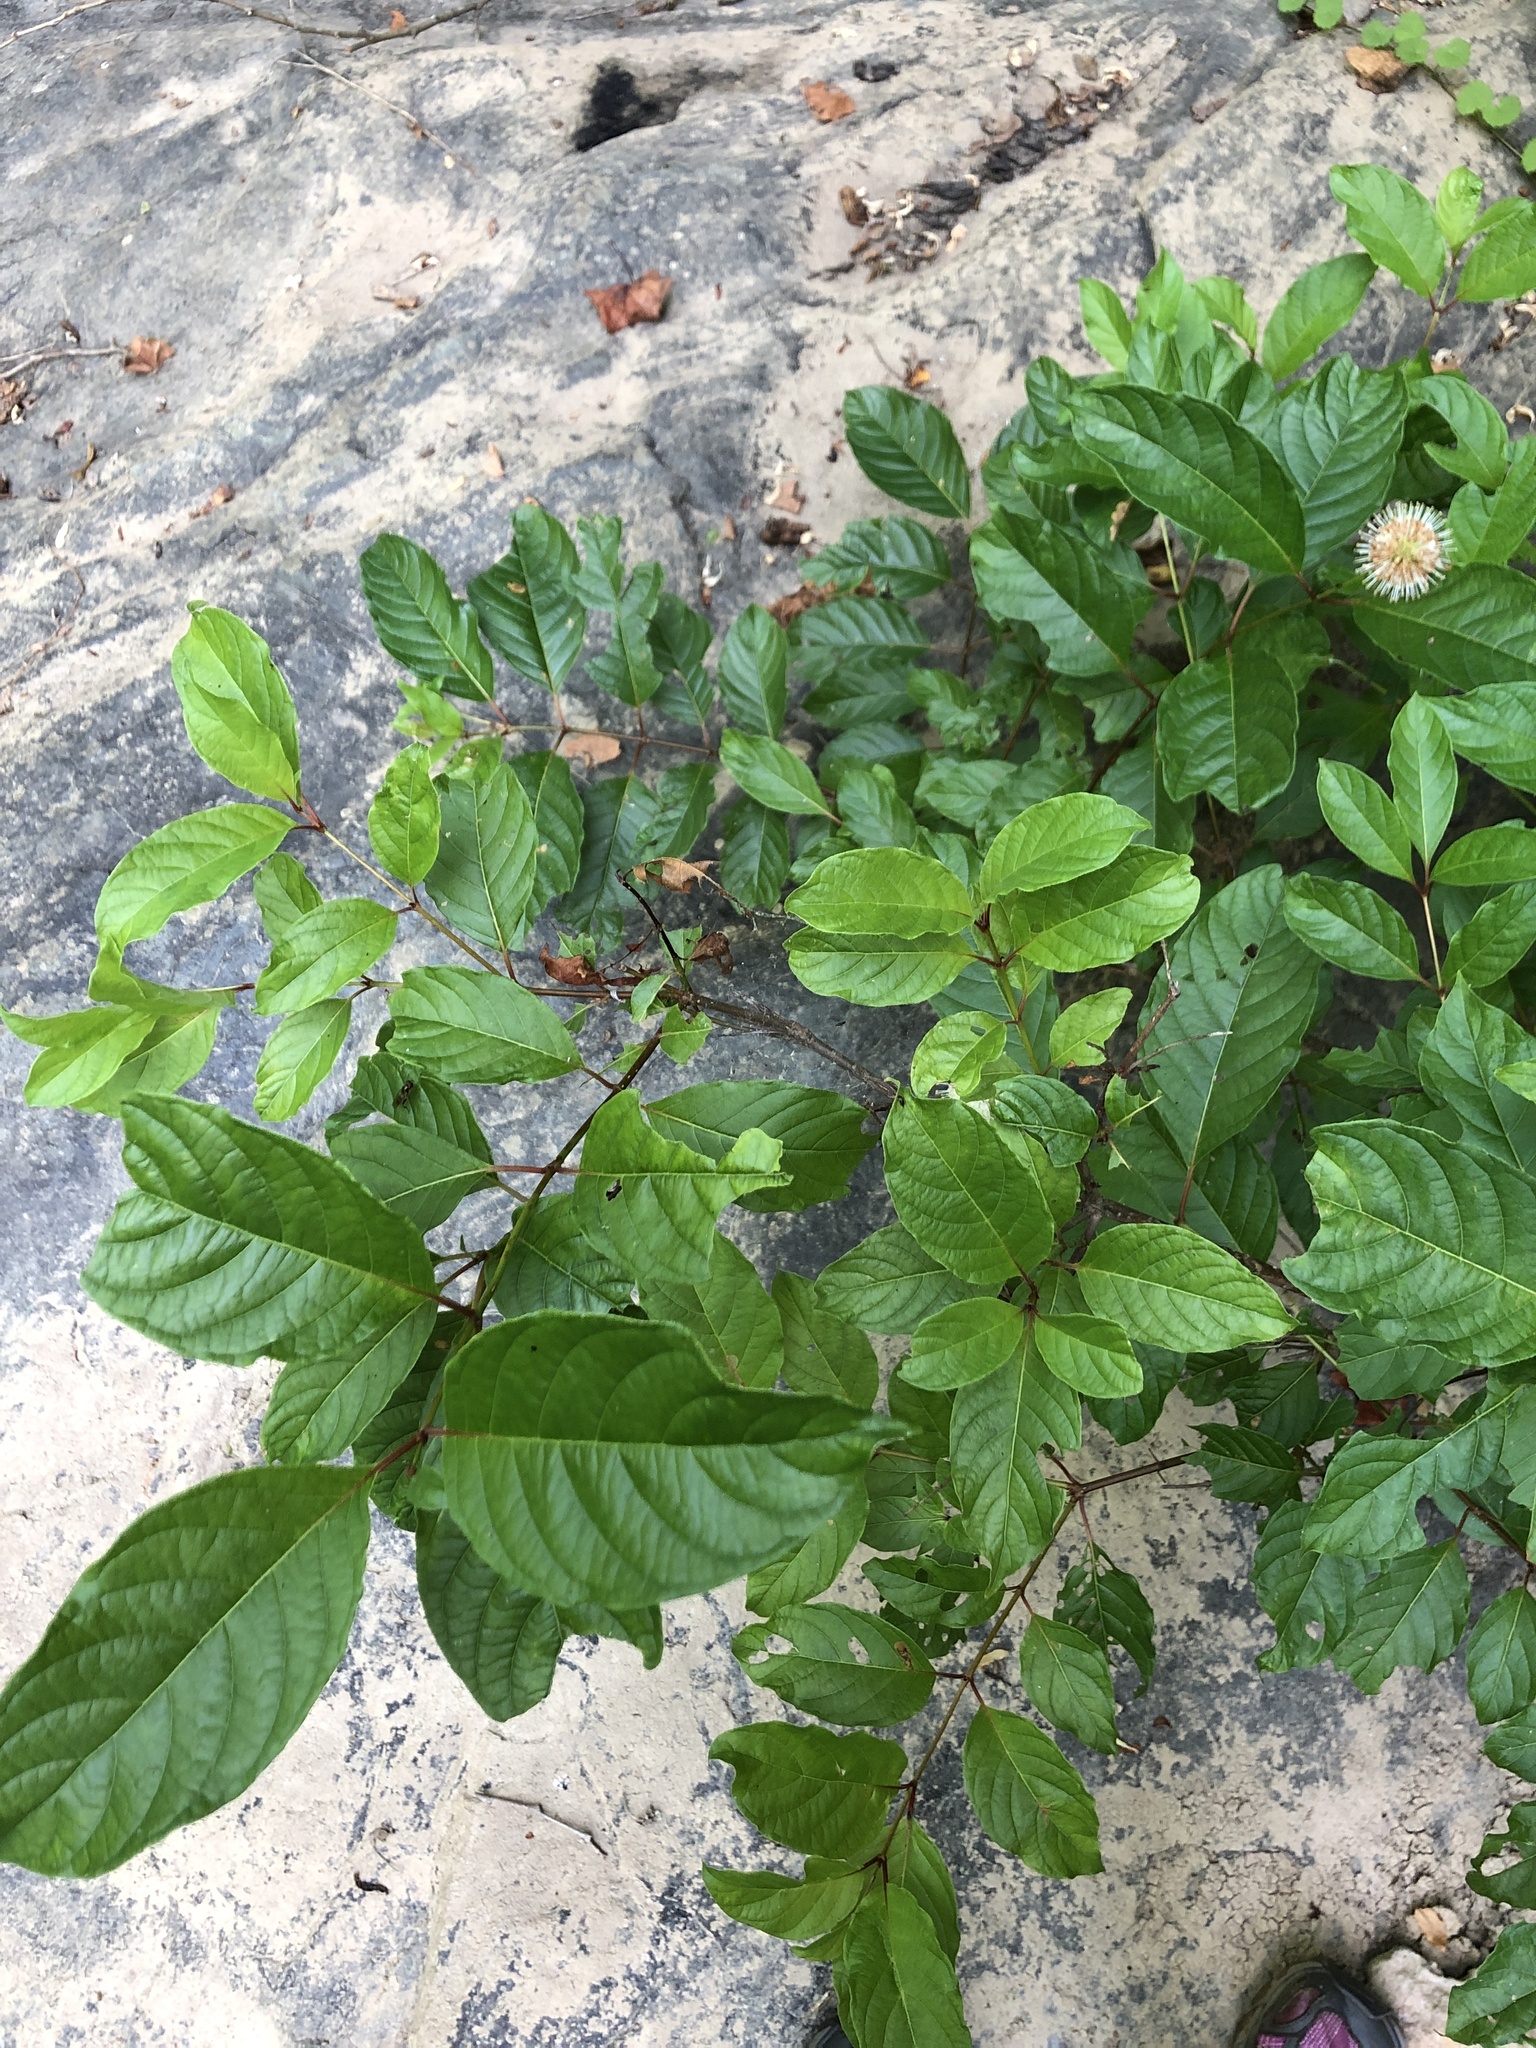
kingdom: Plantae
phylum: Tracheophyta
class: Magnoliopsida
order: Gentianales
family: Rubiaceae
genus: Cephalanthus
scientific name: Cephalanthus occidentalis
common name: Button-willow
